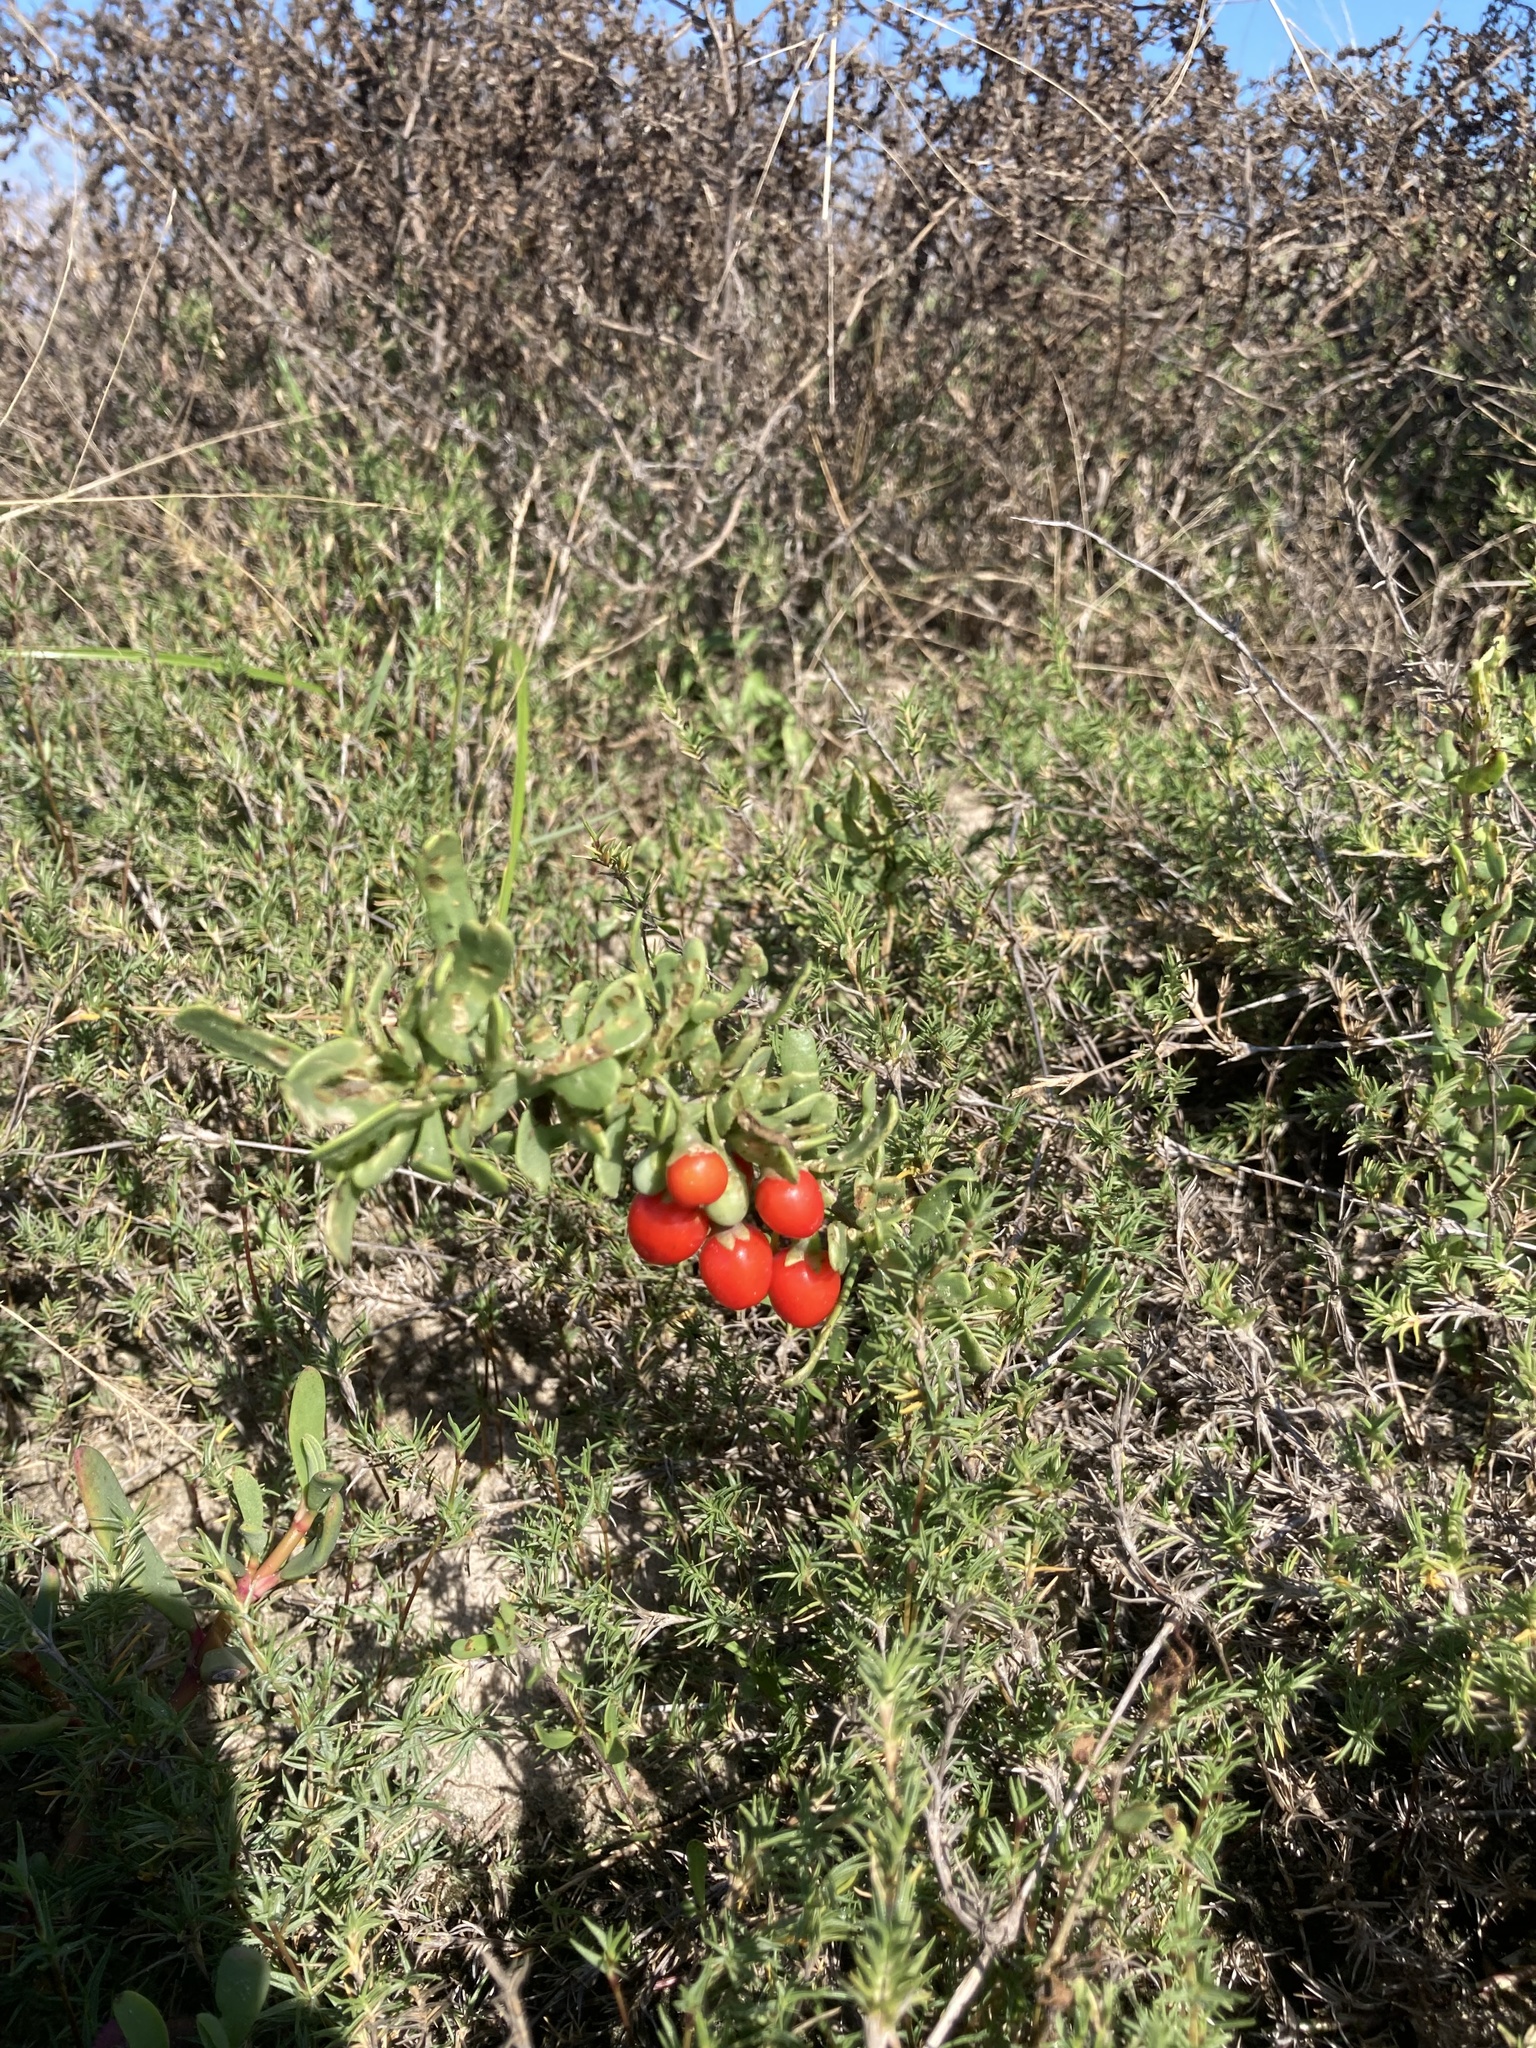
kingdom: Plantae
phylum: Tracheophyta
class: Magnoliopsida
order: Solanales
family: Solanaceae
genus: Lycium
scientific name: Lycium carolinianum
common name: Christmasberry
